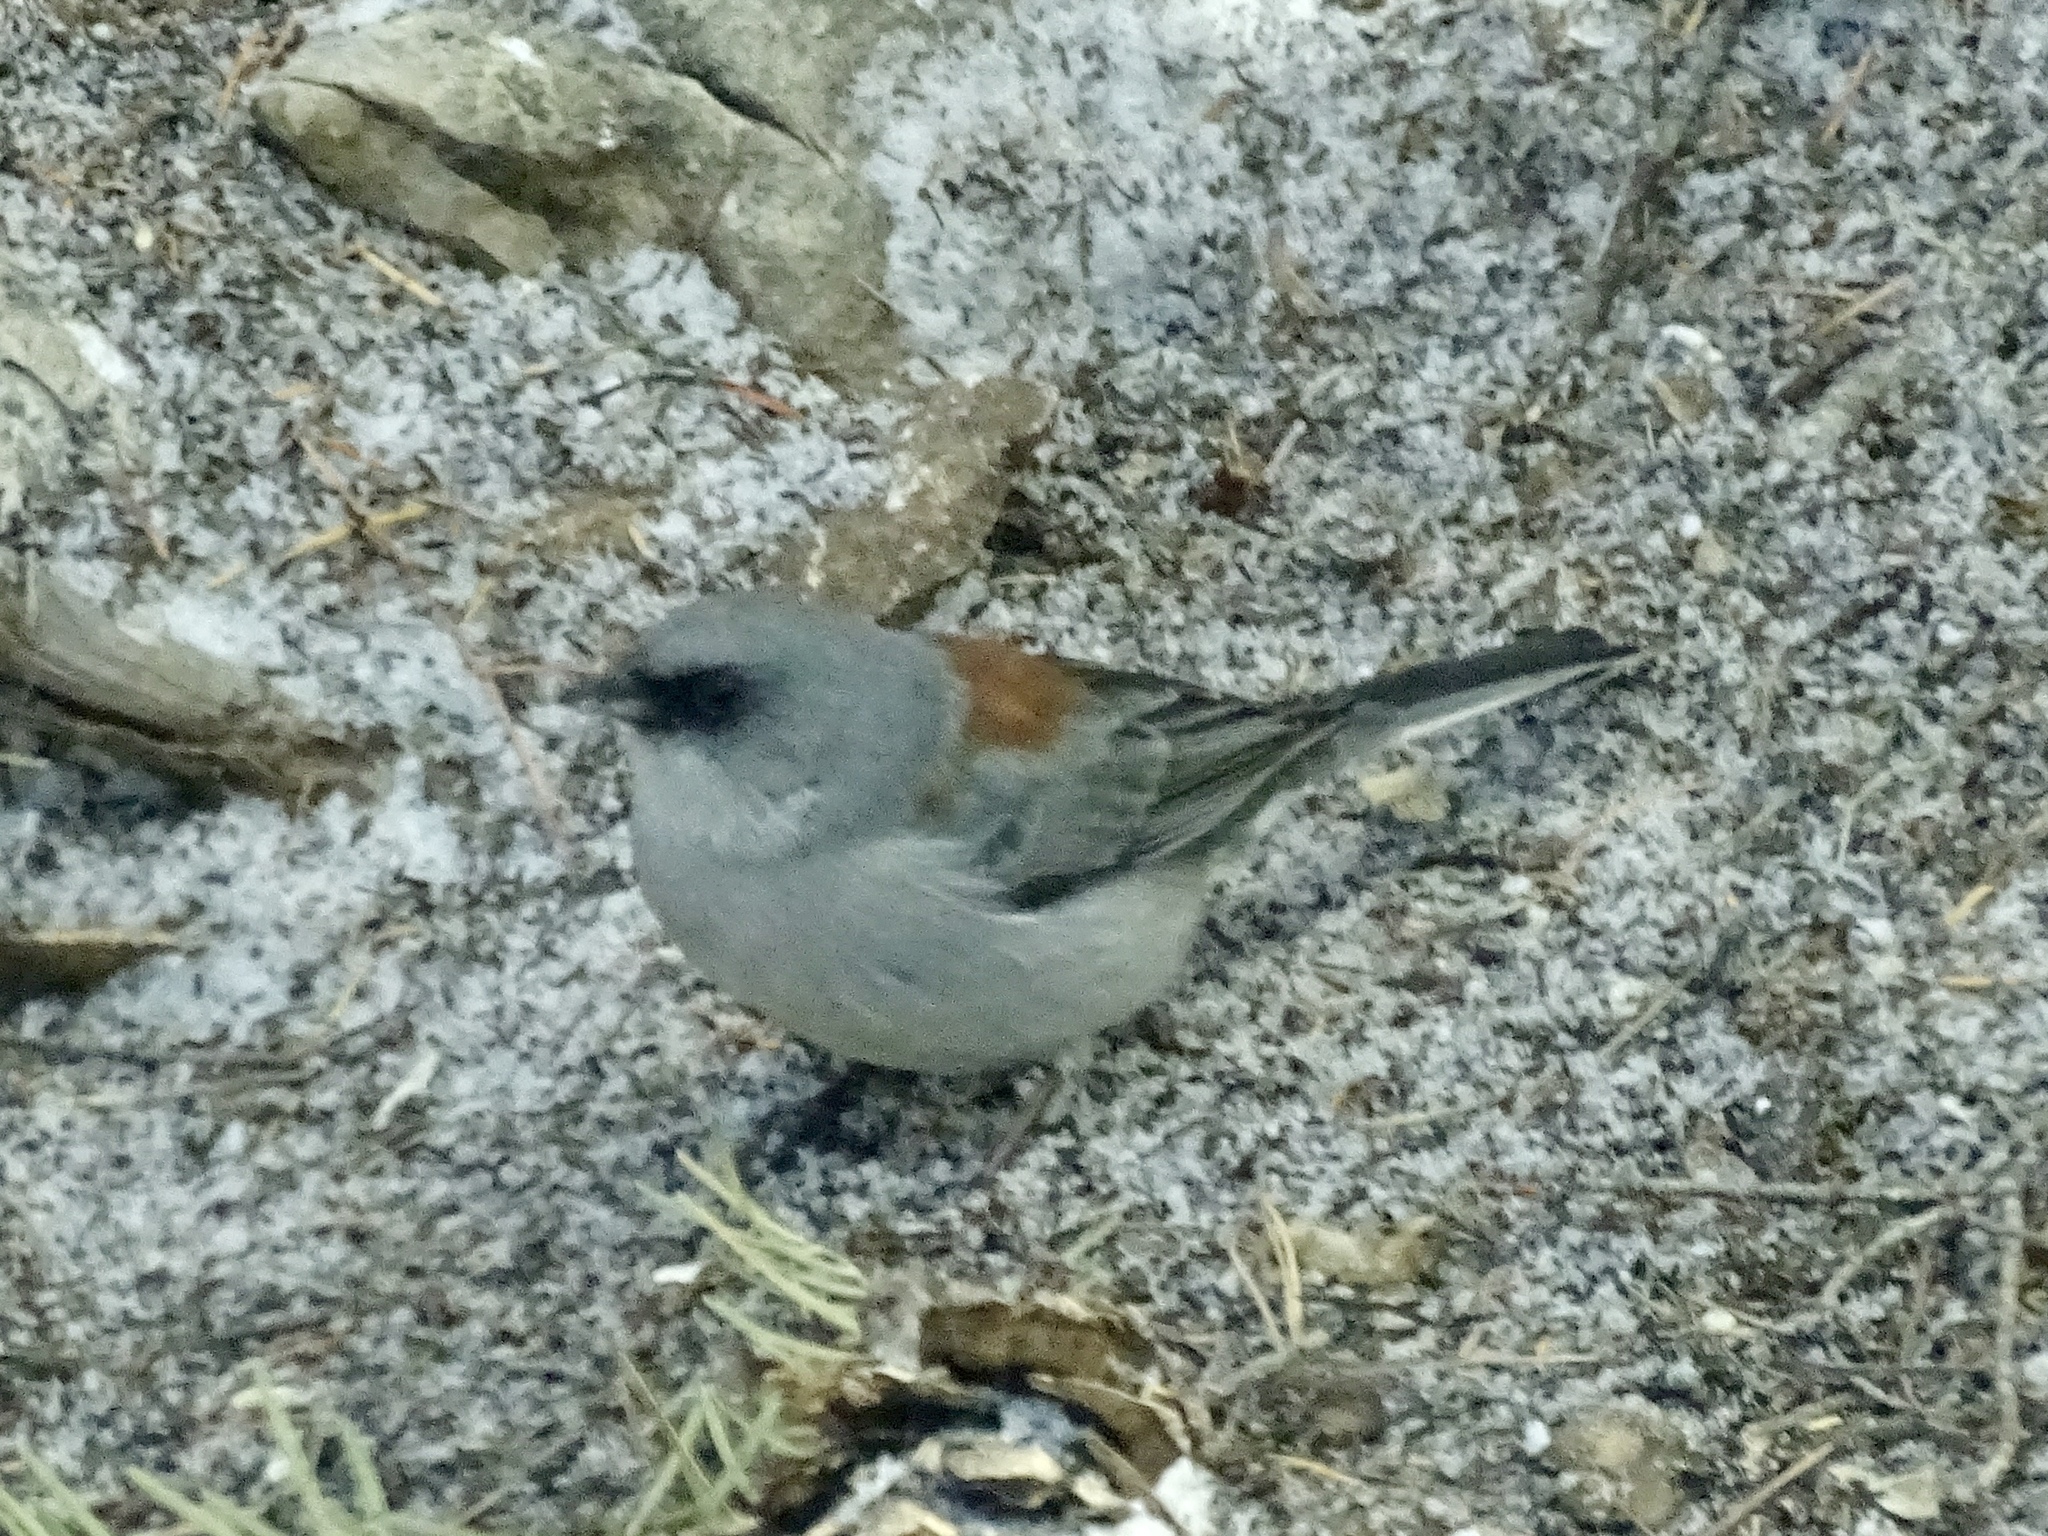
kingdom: Animalia
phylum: Chordata
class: Aves
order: Passeriformes
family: Passerellidae
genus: Junco
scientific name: Junco hyemalis
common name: Dark-eyed junco
